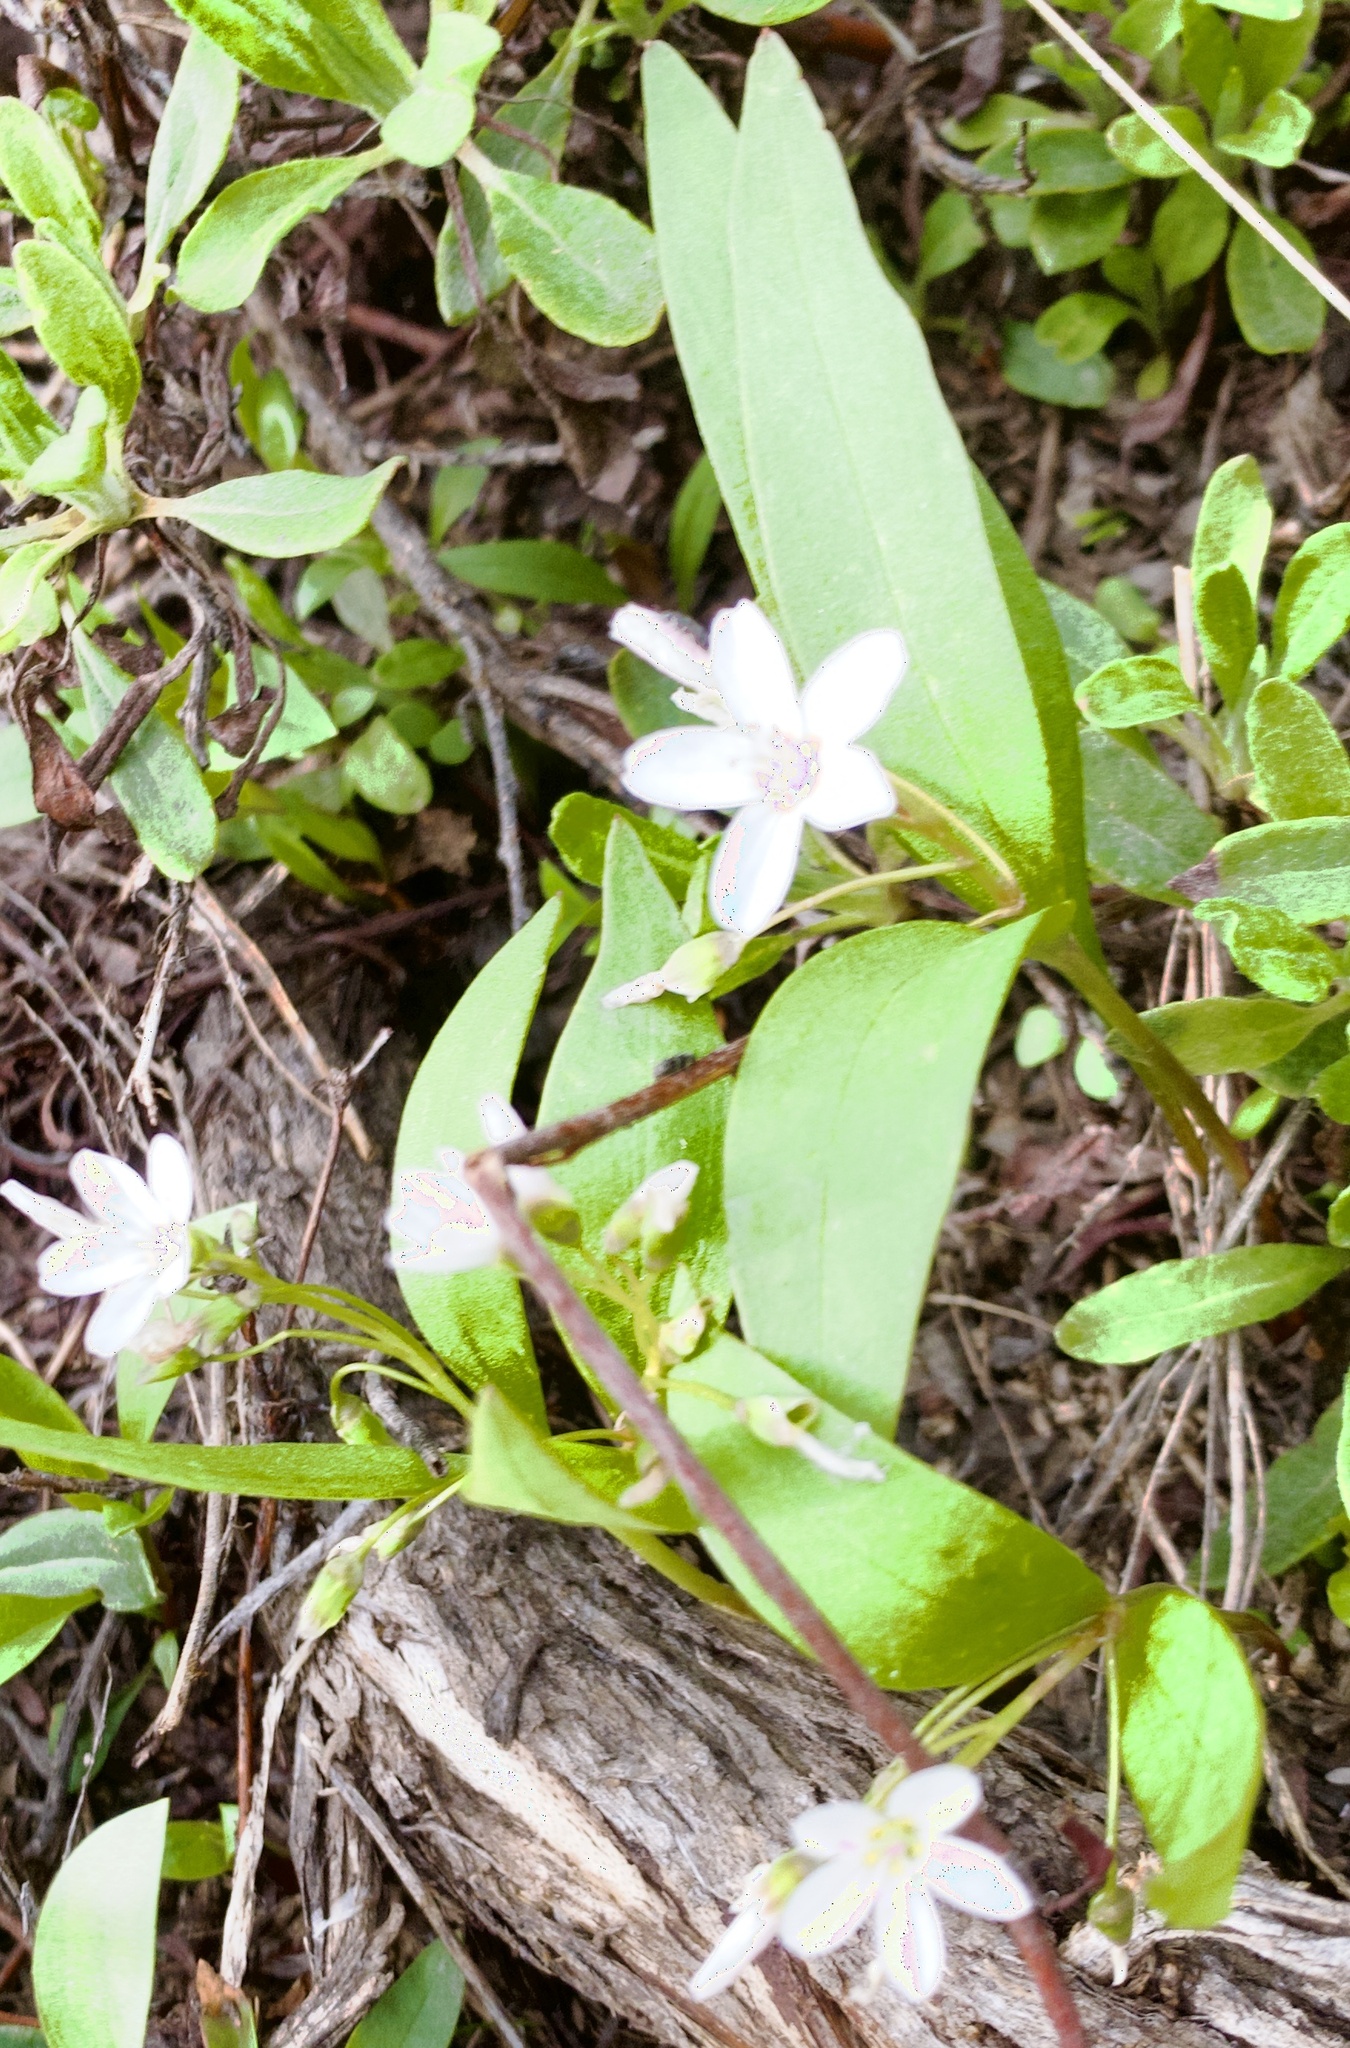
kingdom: Plantae
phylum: Tracheophyta
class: Magnoliopsida
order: Caryophyllales
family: Montiaceae
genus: Claytonia
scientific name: Claytonia lanceolata
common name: Western spring-beauty
